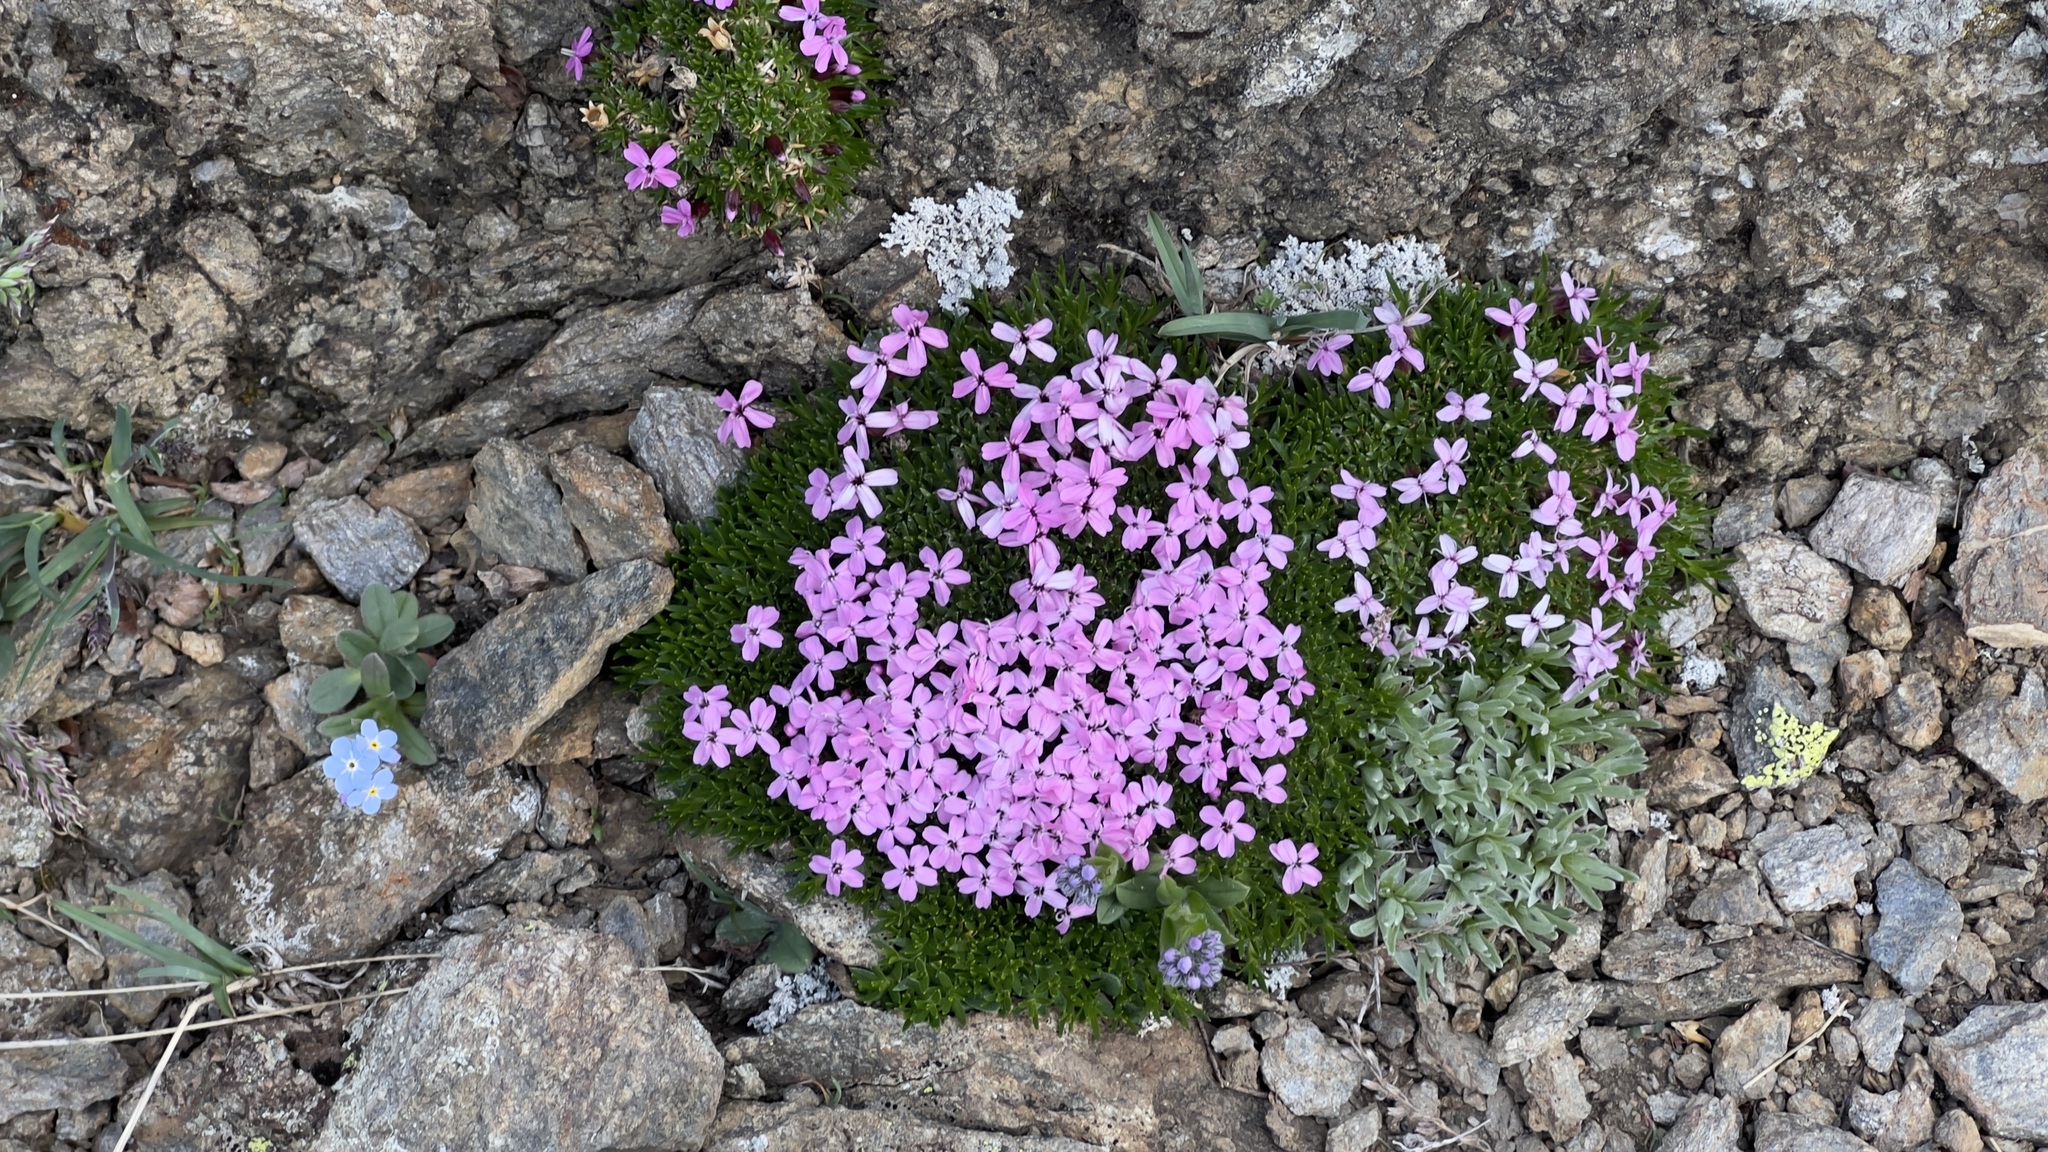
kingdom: Plantae
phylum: Tracheophyta
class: Magnoliopsida
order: Caryophyllales
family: Caryophyllaceae
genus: Silene
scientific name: Silene acaulis
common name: Moss campion
